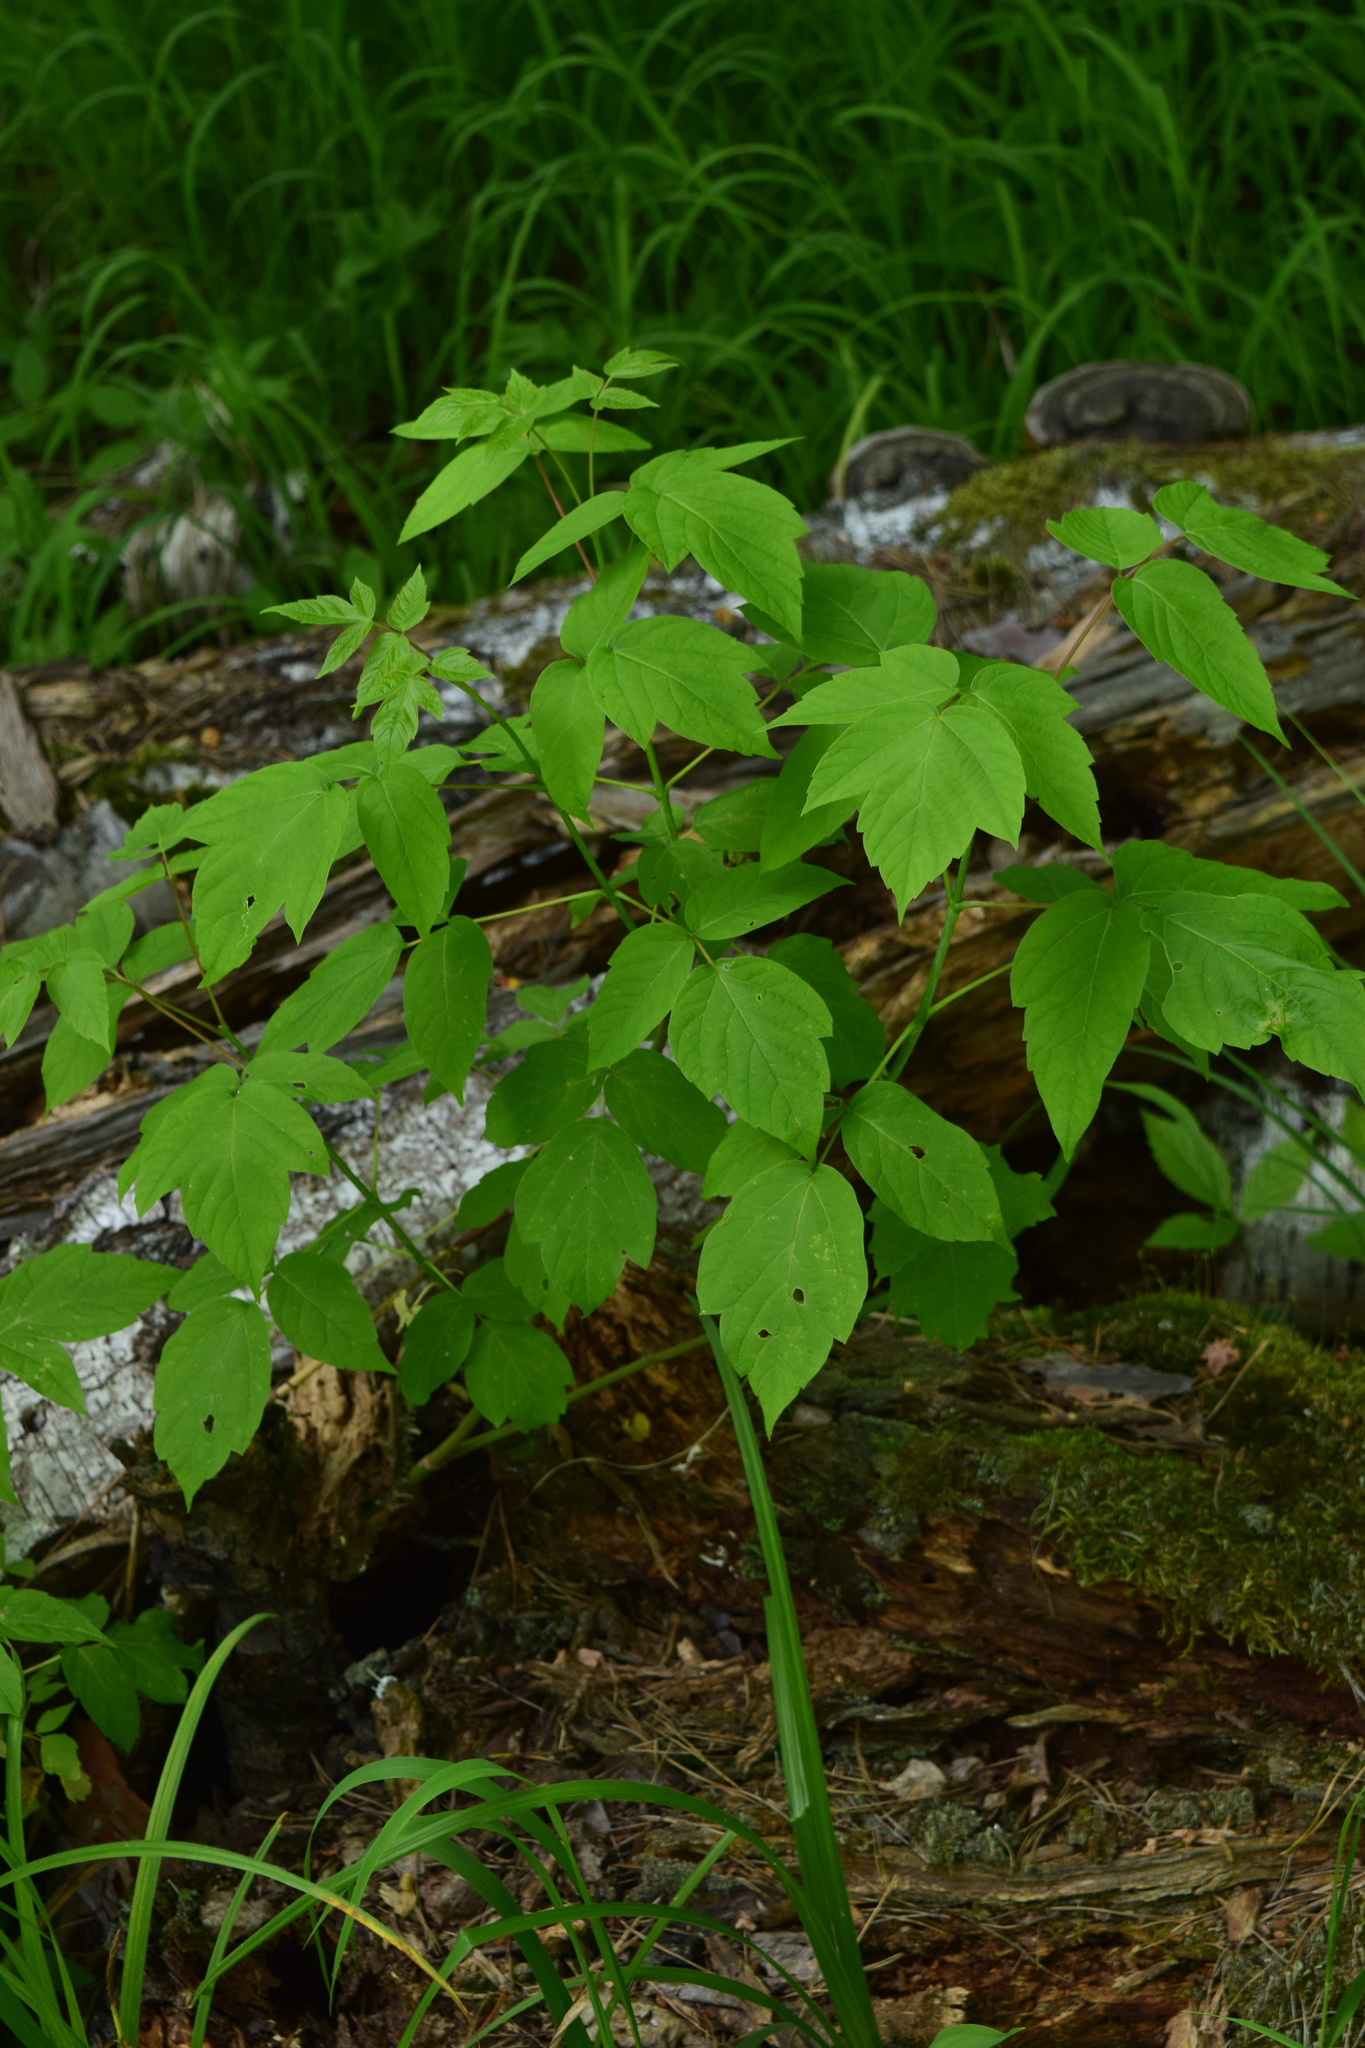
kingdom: Plantae
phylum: Tracheophyta
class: Magnoliopsida
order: Sapindales
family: Sapindaceae
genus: Acer
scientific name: Acer negundo
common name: Ashleaf maple
